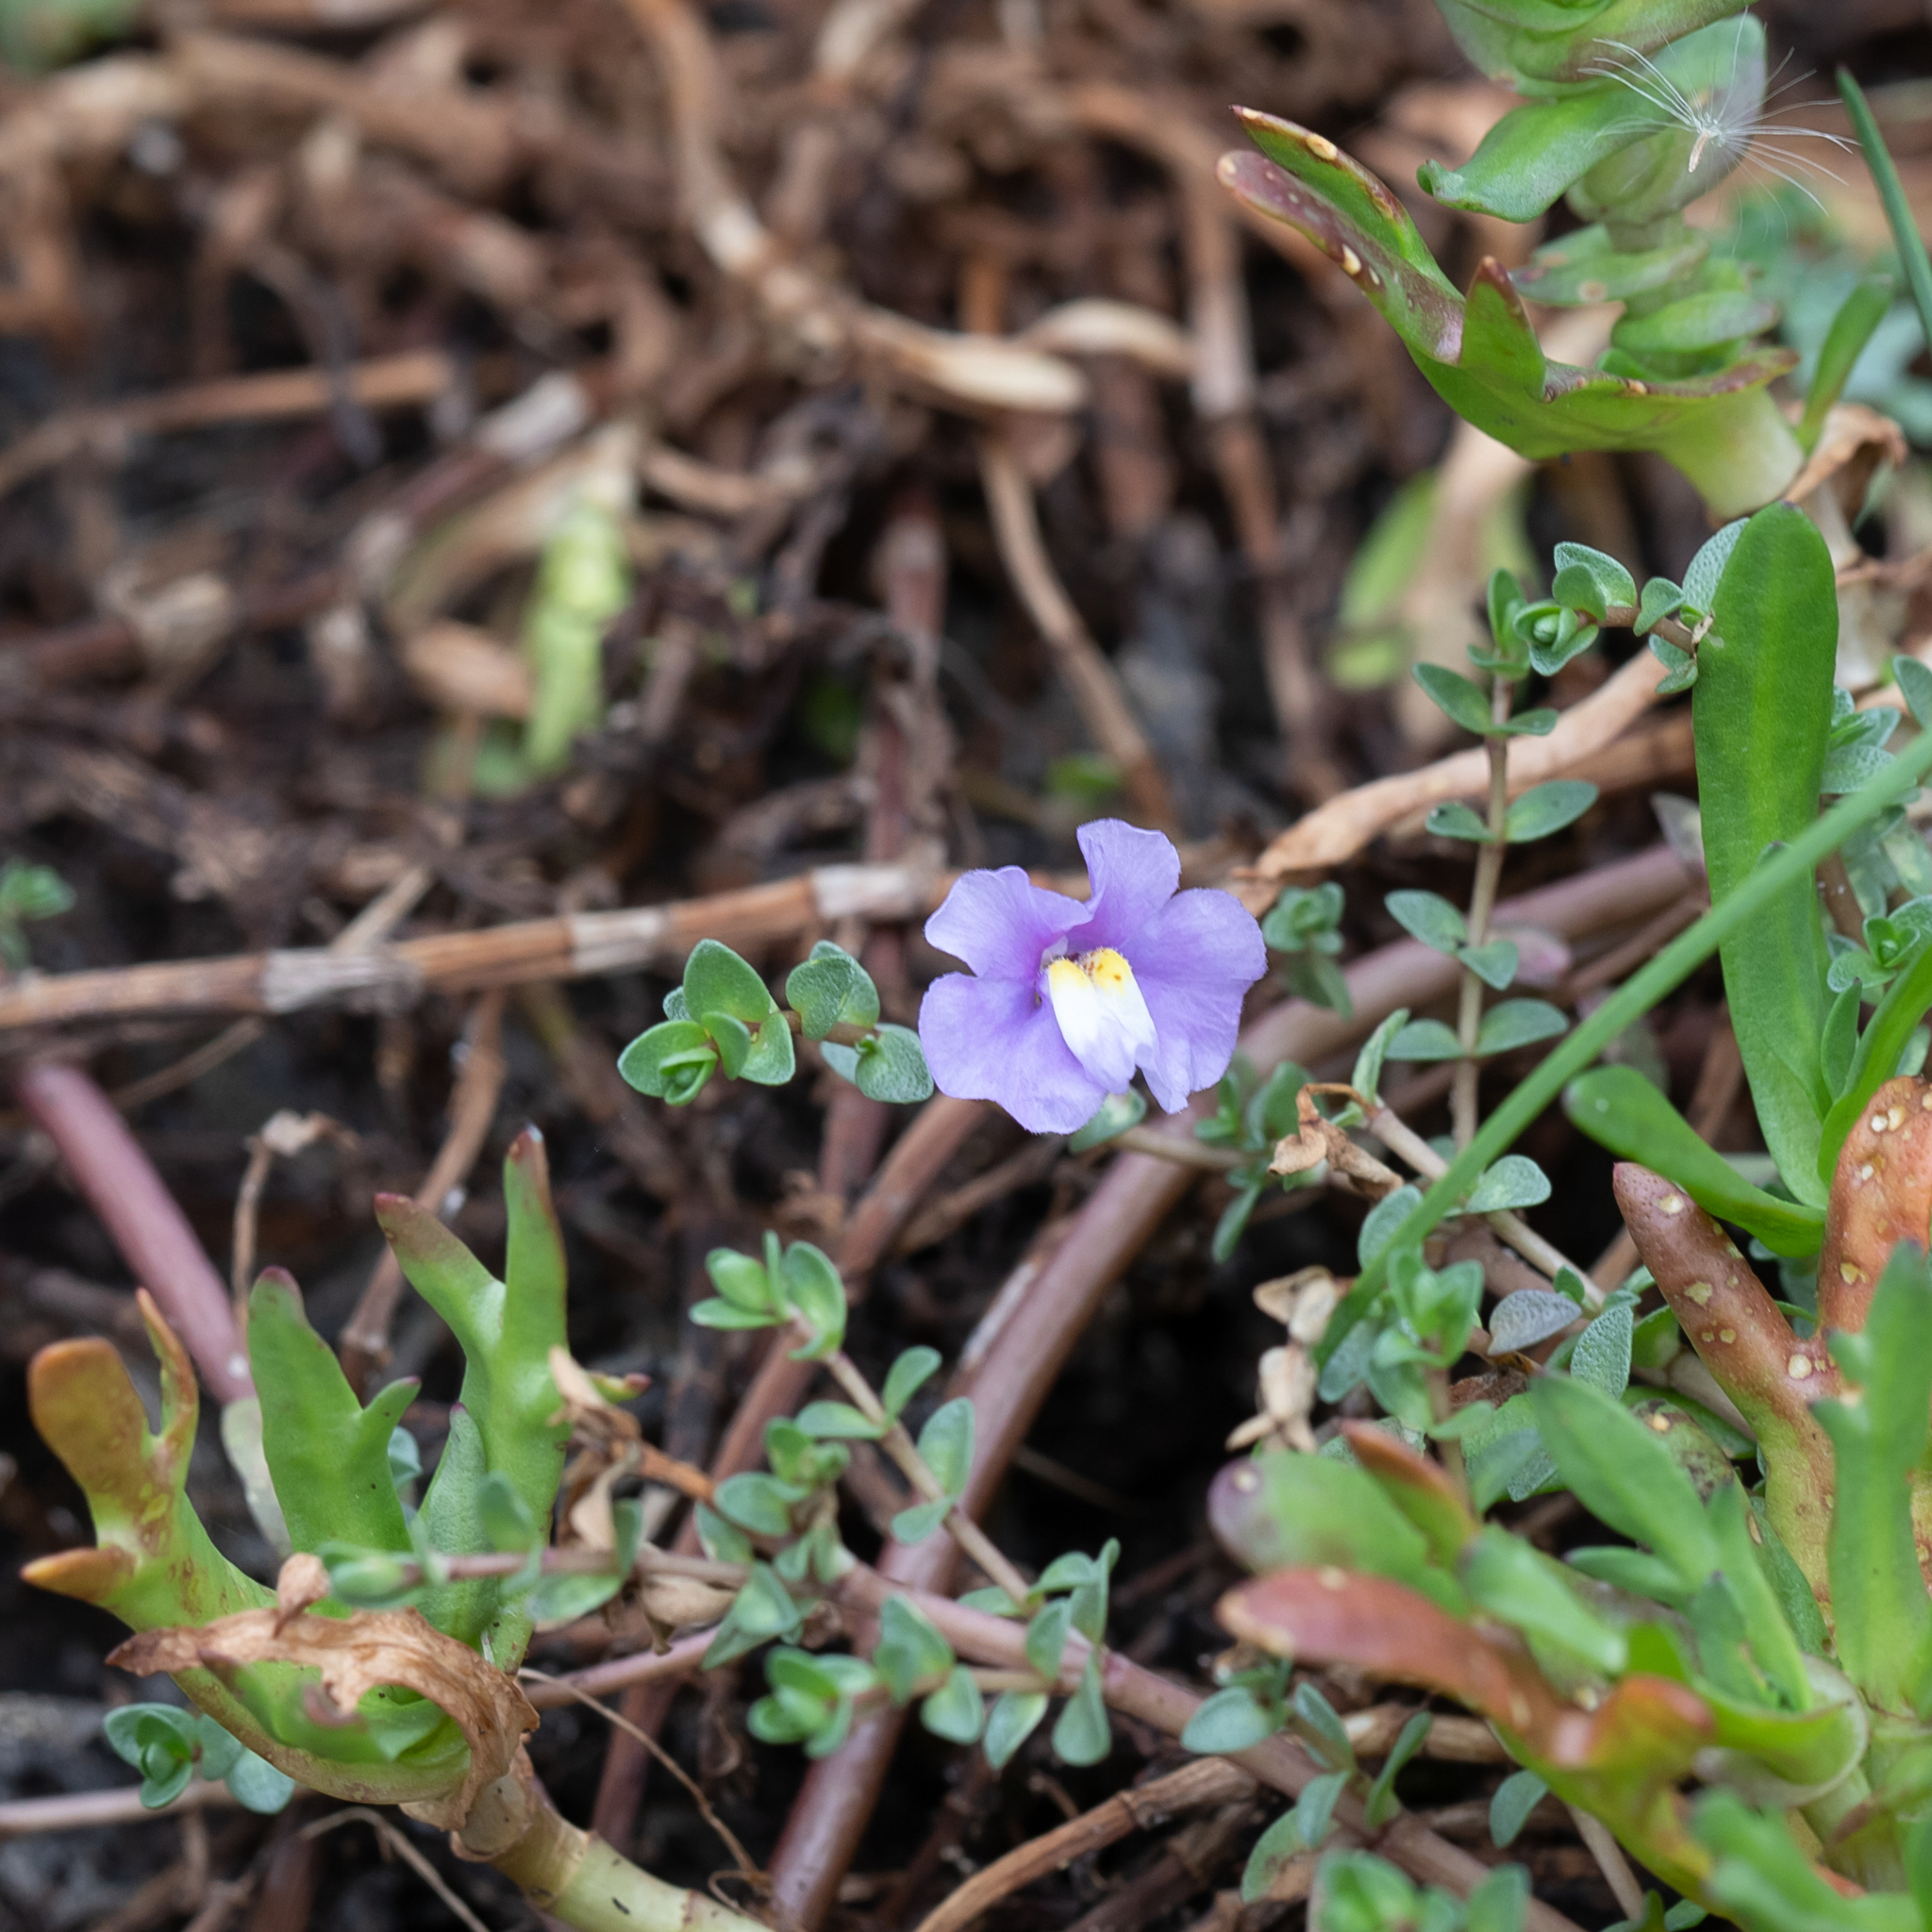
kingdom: Plantae
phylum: Tracheophyta
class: Magnoliopsida
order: Lamiales
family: Phrymaceae
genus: Thyridia
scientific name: Thyridia repens
